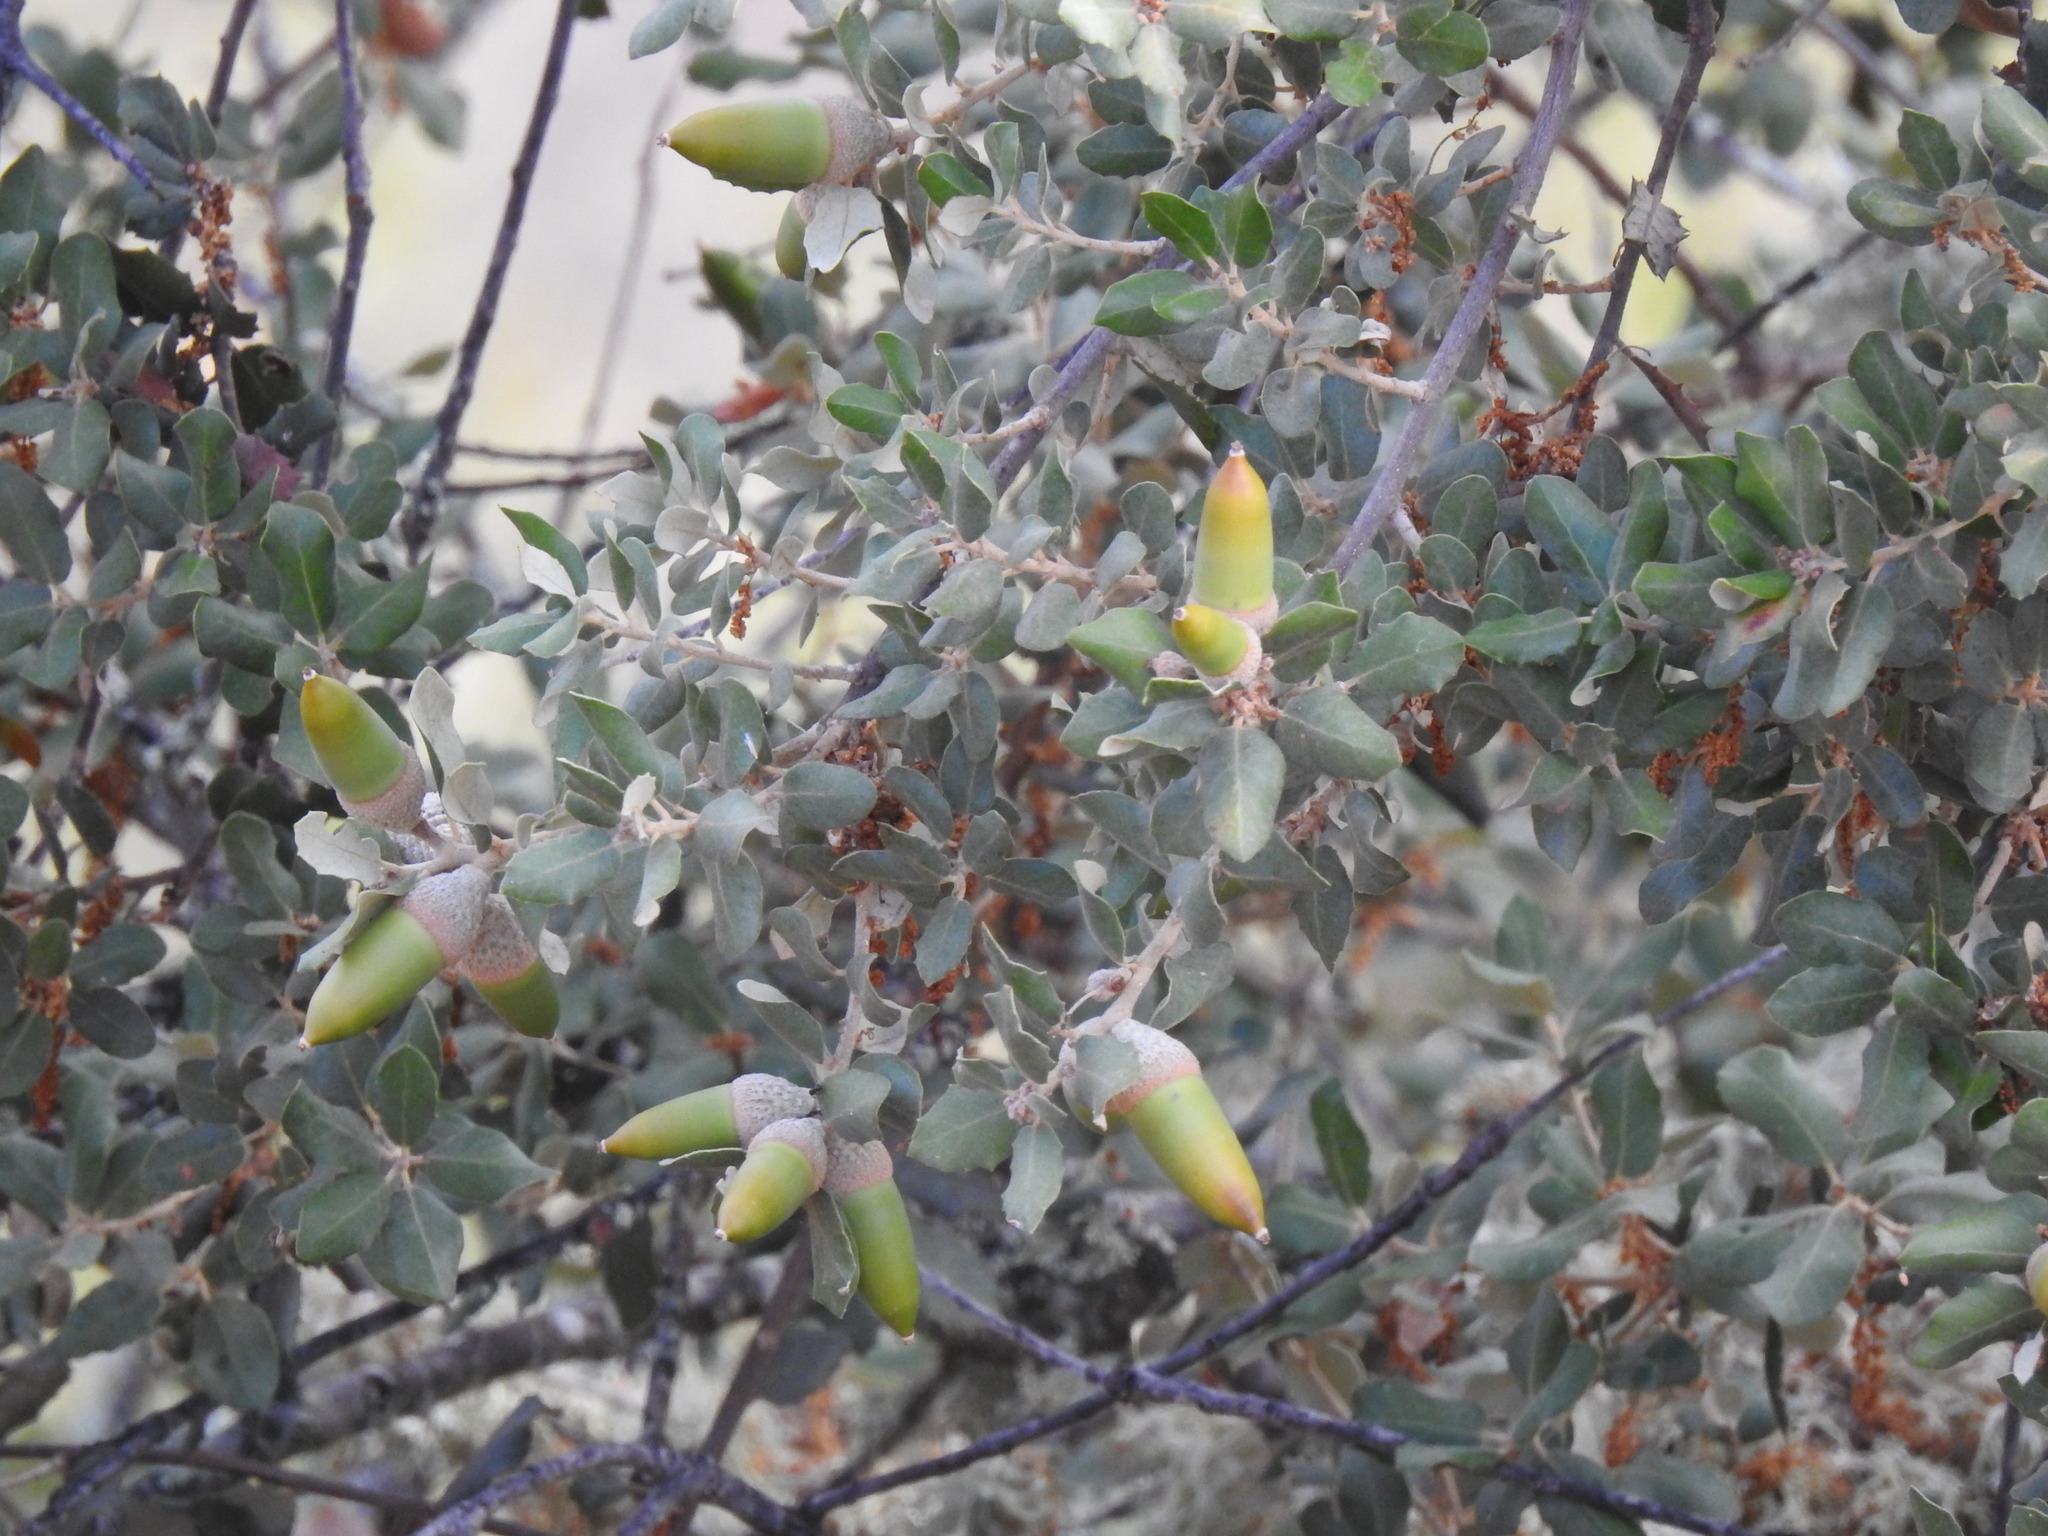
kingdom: Plantae
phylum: Tracheophyta
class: Magnoliopsida
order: Fagales
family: Fagaceae
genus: Quercus
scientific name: Quercus rotundifolia
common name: Holm oak
